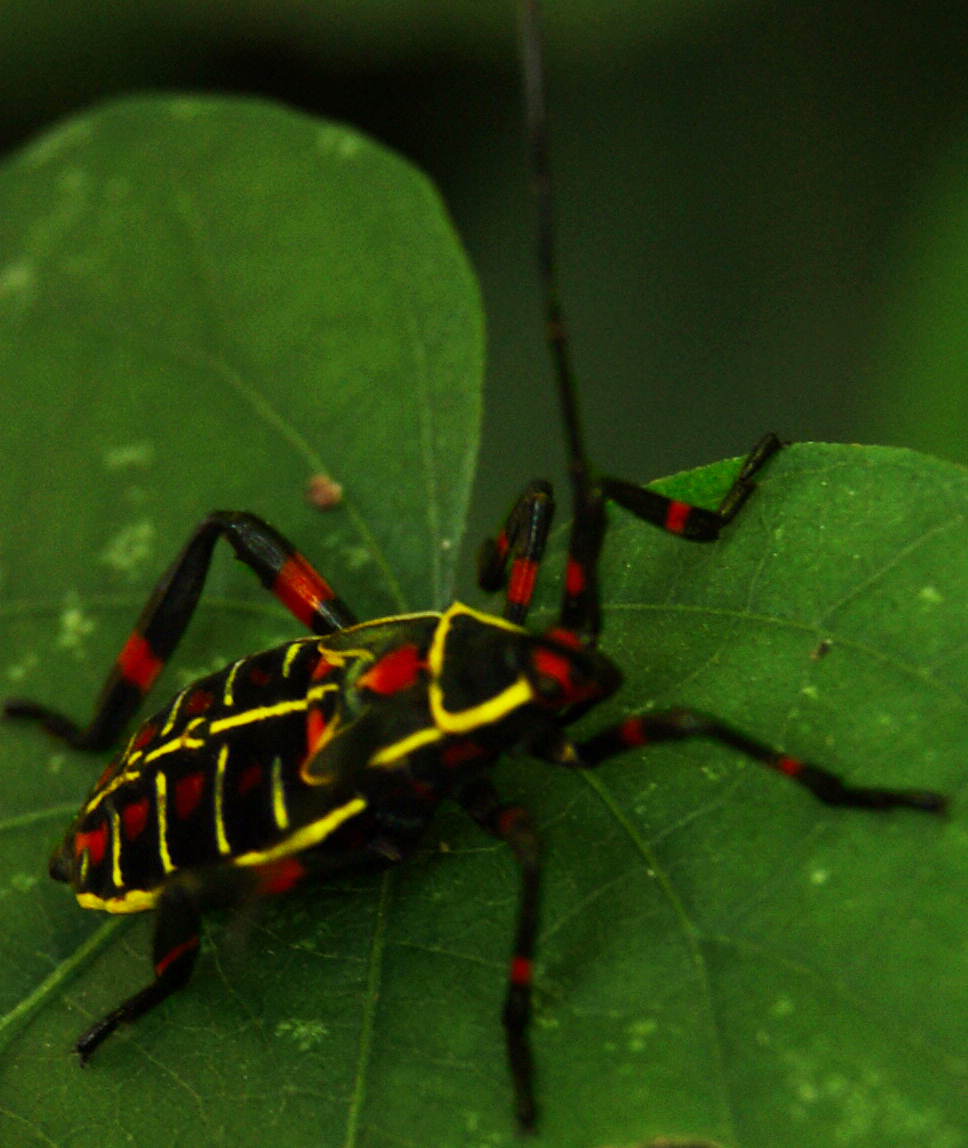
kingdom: Animalia
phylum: Arthropoda
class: Insecta
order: Hemiptera
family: Coreidae
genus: Thasus
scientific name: Thasus acutangulus
